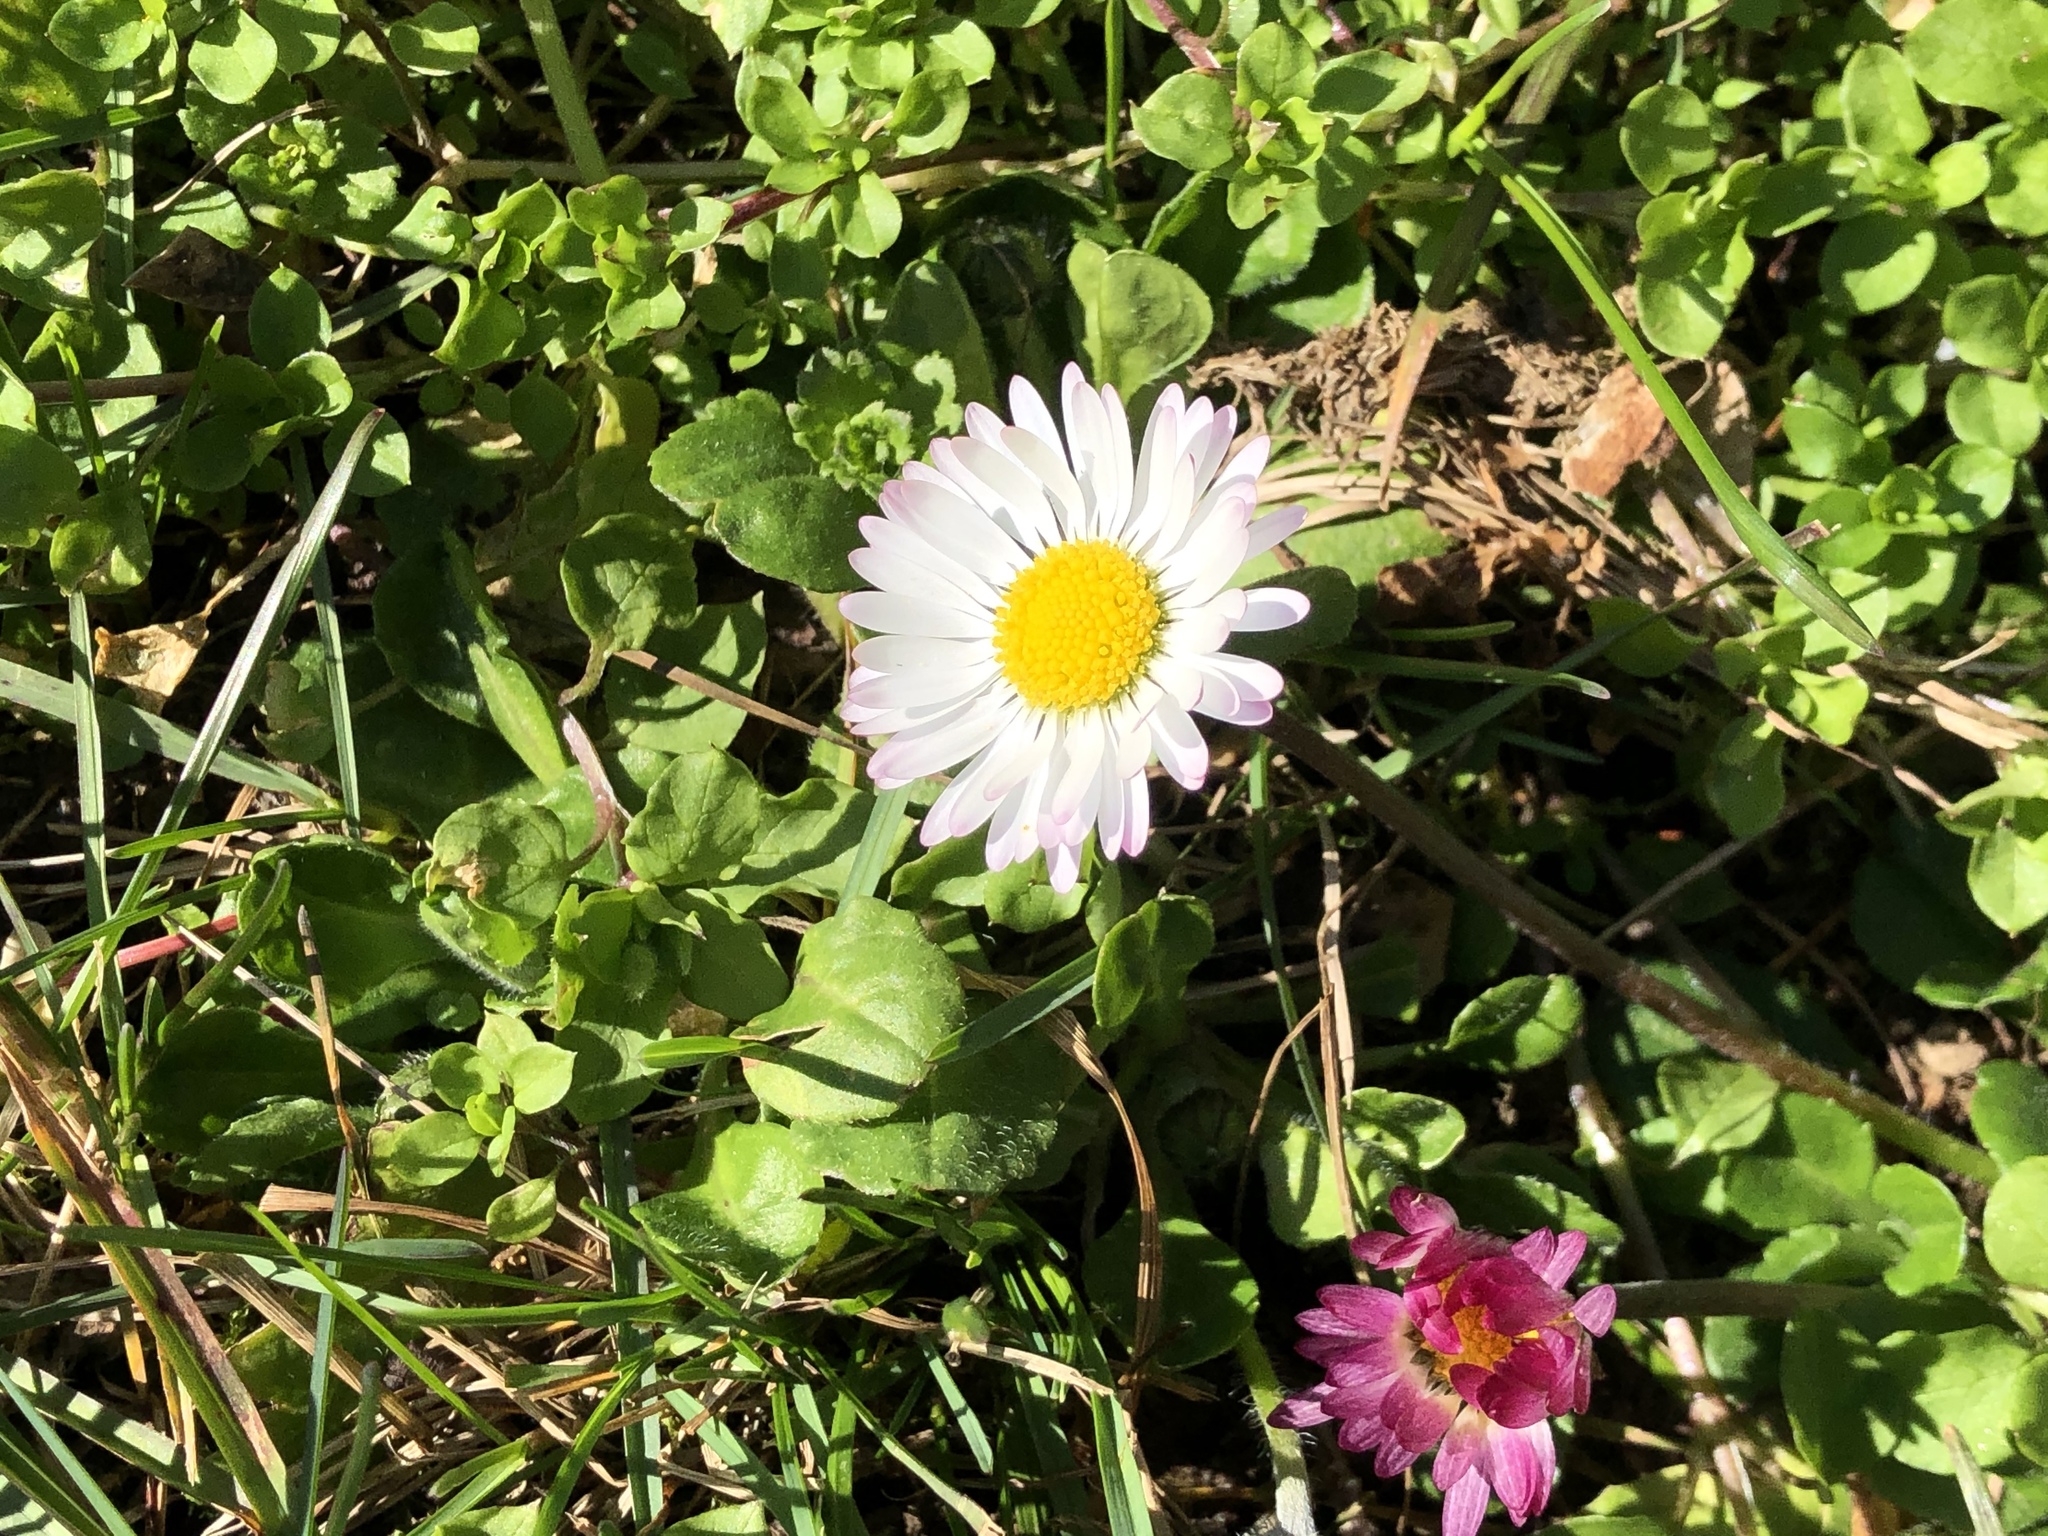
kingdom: Plantae
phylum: Tracheophyta
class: Magnoliopsida
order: Asterales
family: Asteraceae
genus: Bellis
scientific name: Bellis perennis
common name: Lawndaisy
